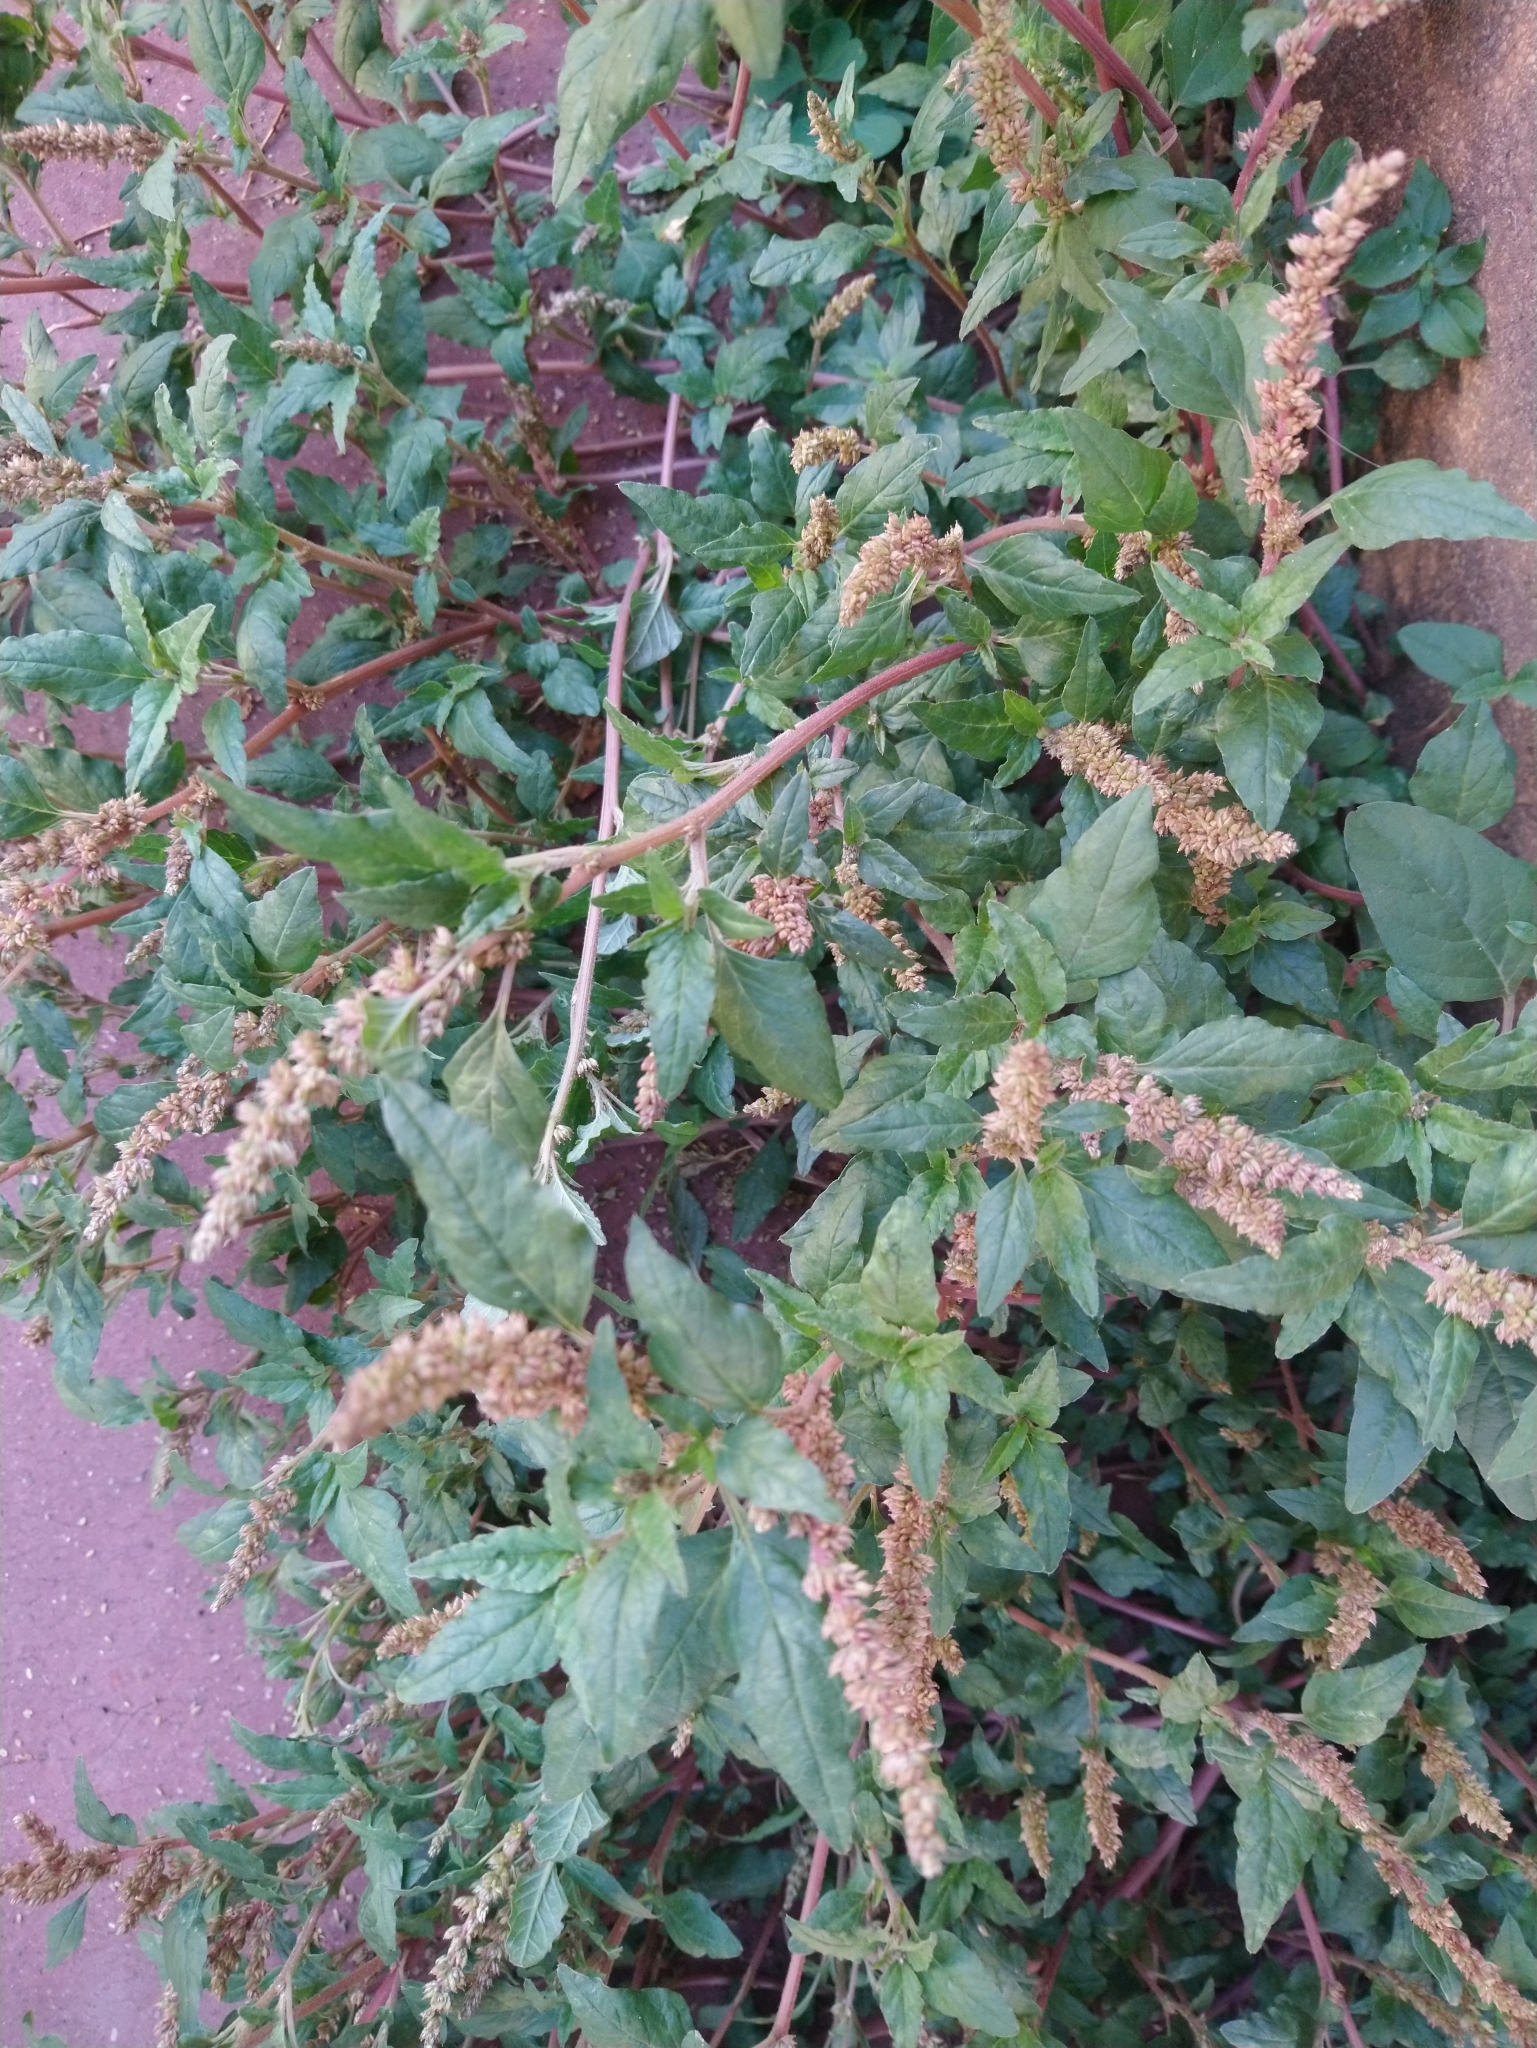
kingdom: Plantae
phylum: Tracheophyta
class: Magnoliopsida
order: Caryophyllales
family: Amaranthaceae
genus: Amaranthus
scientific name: Amaranthus deflexus
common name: Perennial pigweed
